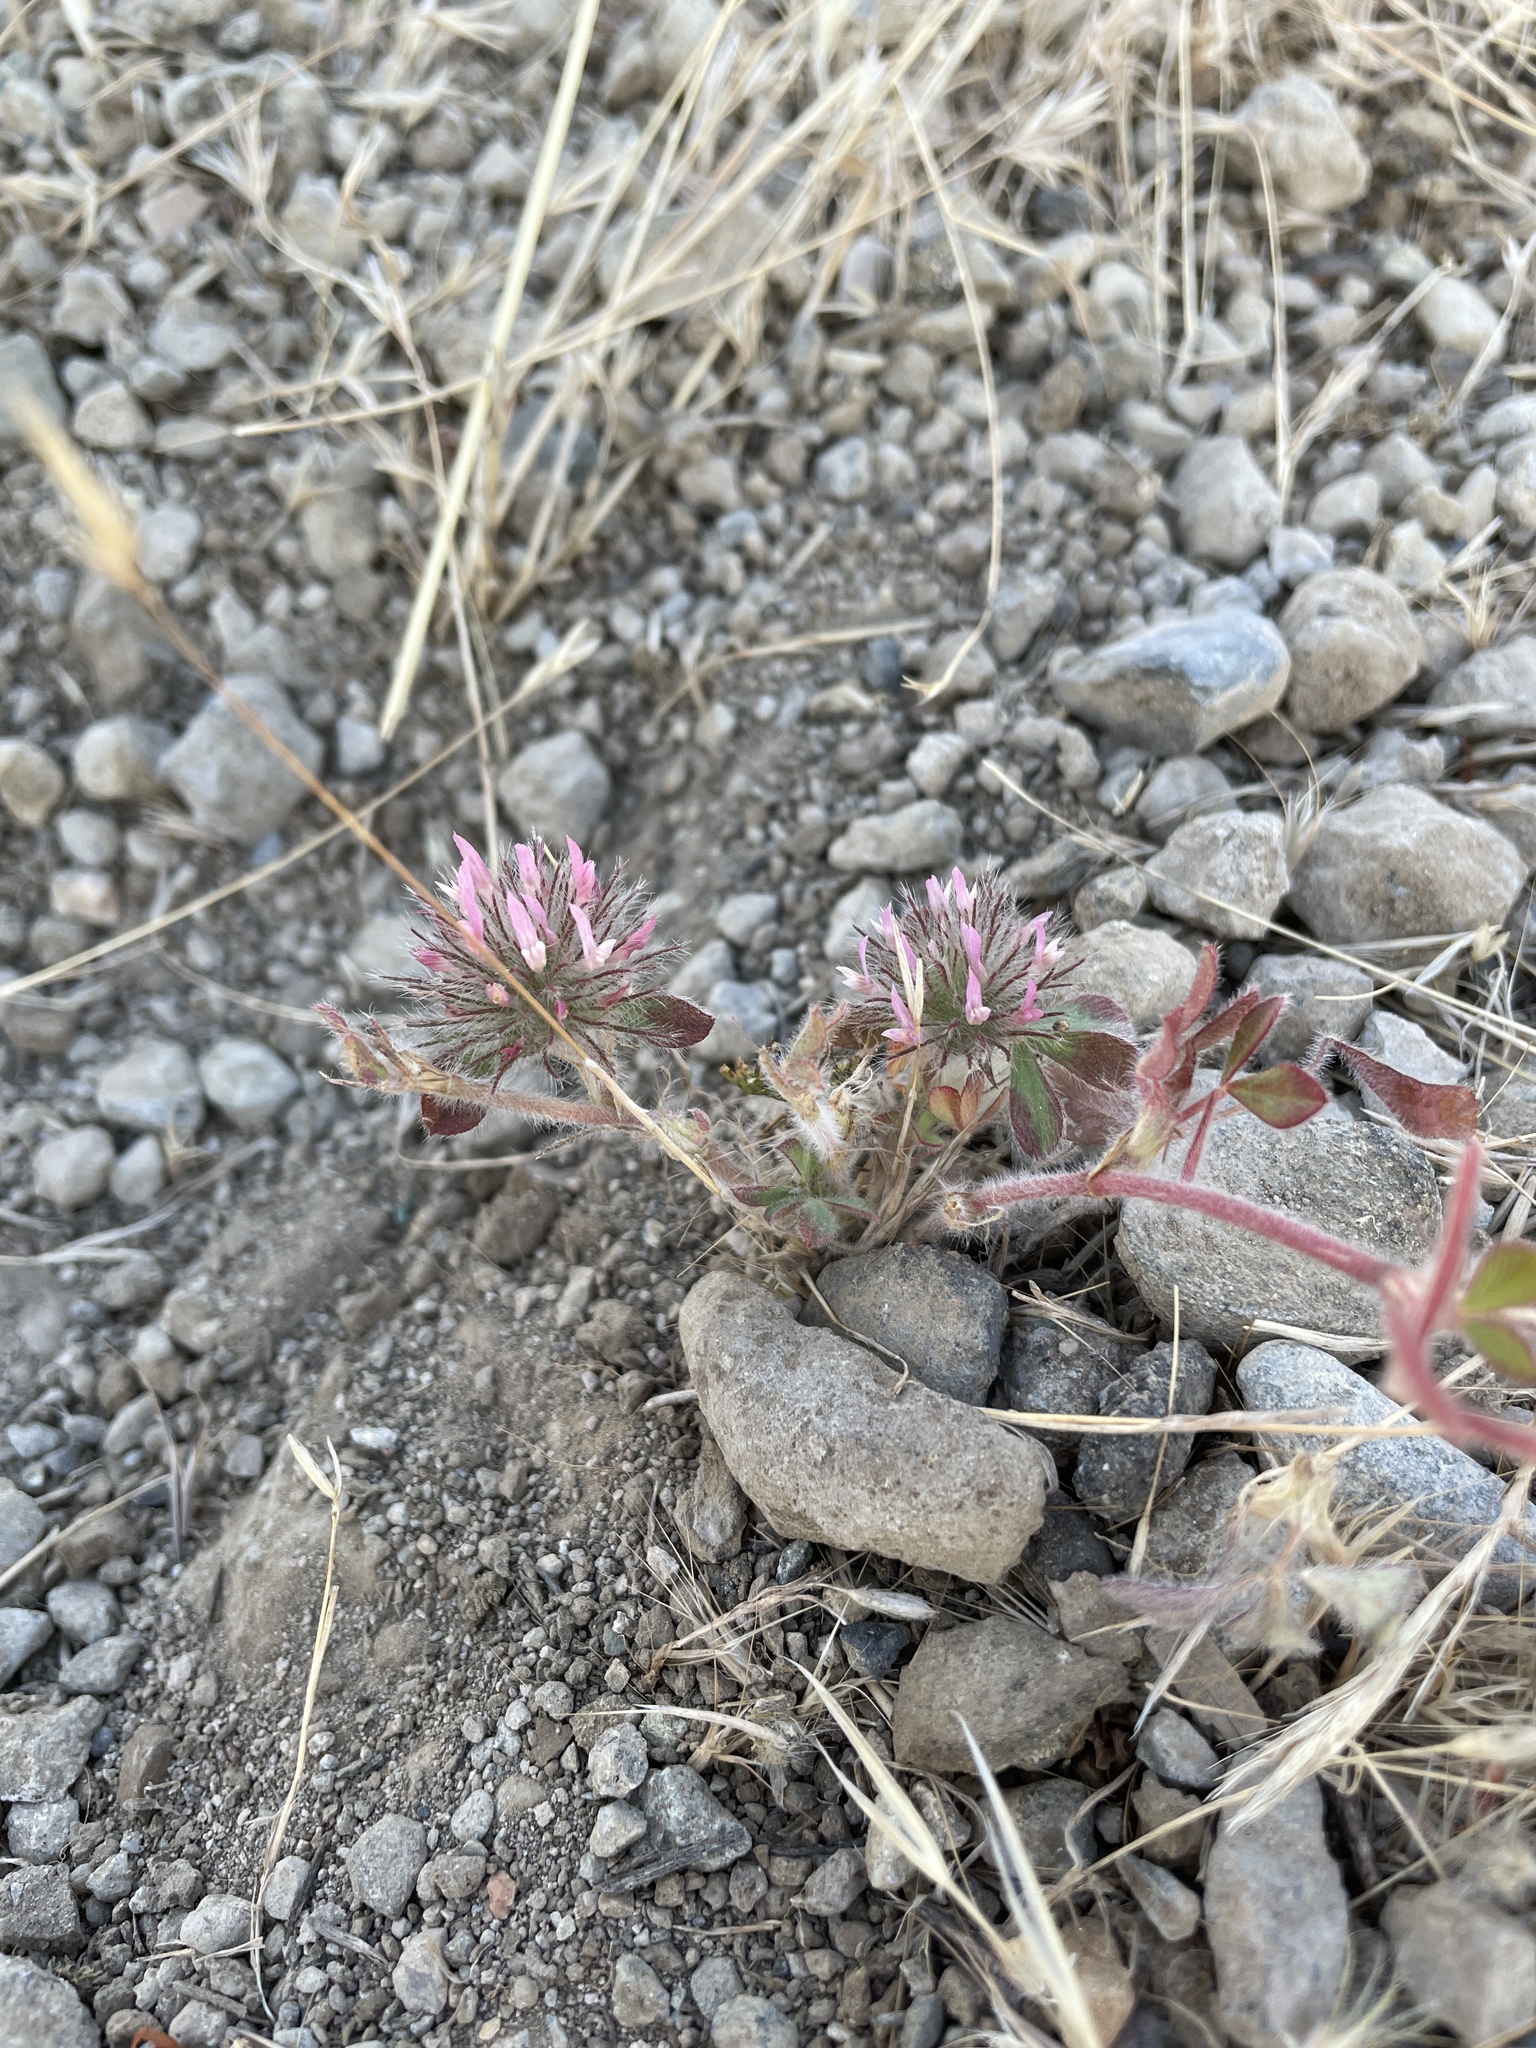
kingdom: Plantae
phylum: Tracheophyta
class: Magnoliopsida
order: Fabales
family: Fabaceae
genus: Trifolium
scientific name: Trifolium hirtum
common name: Rose clover
